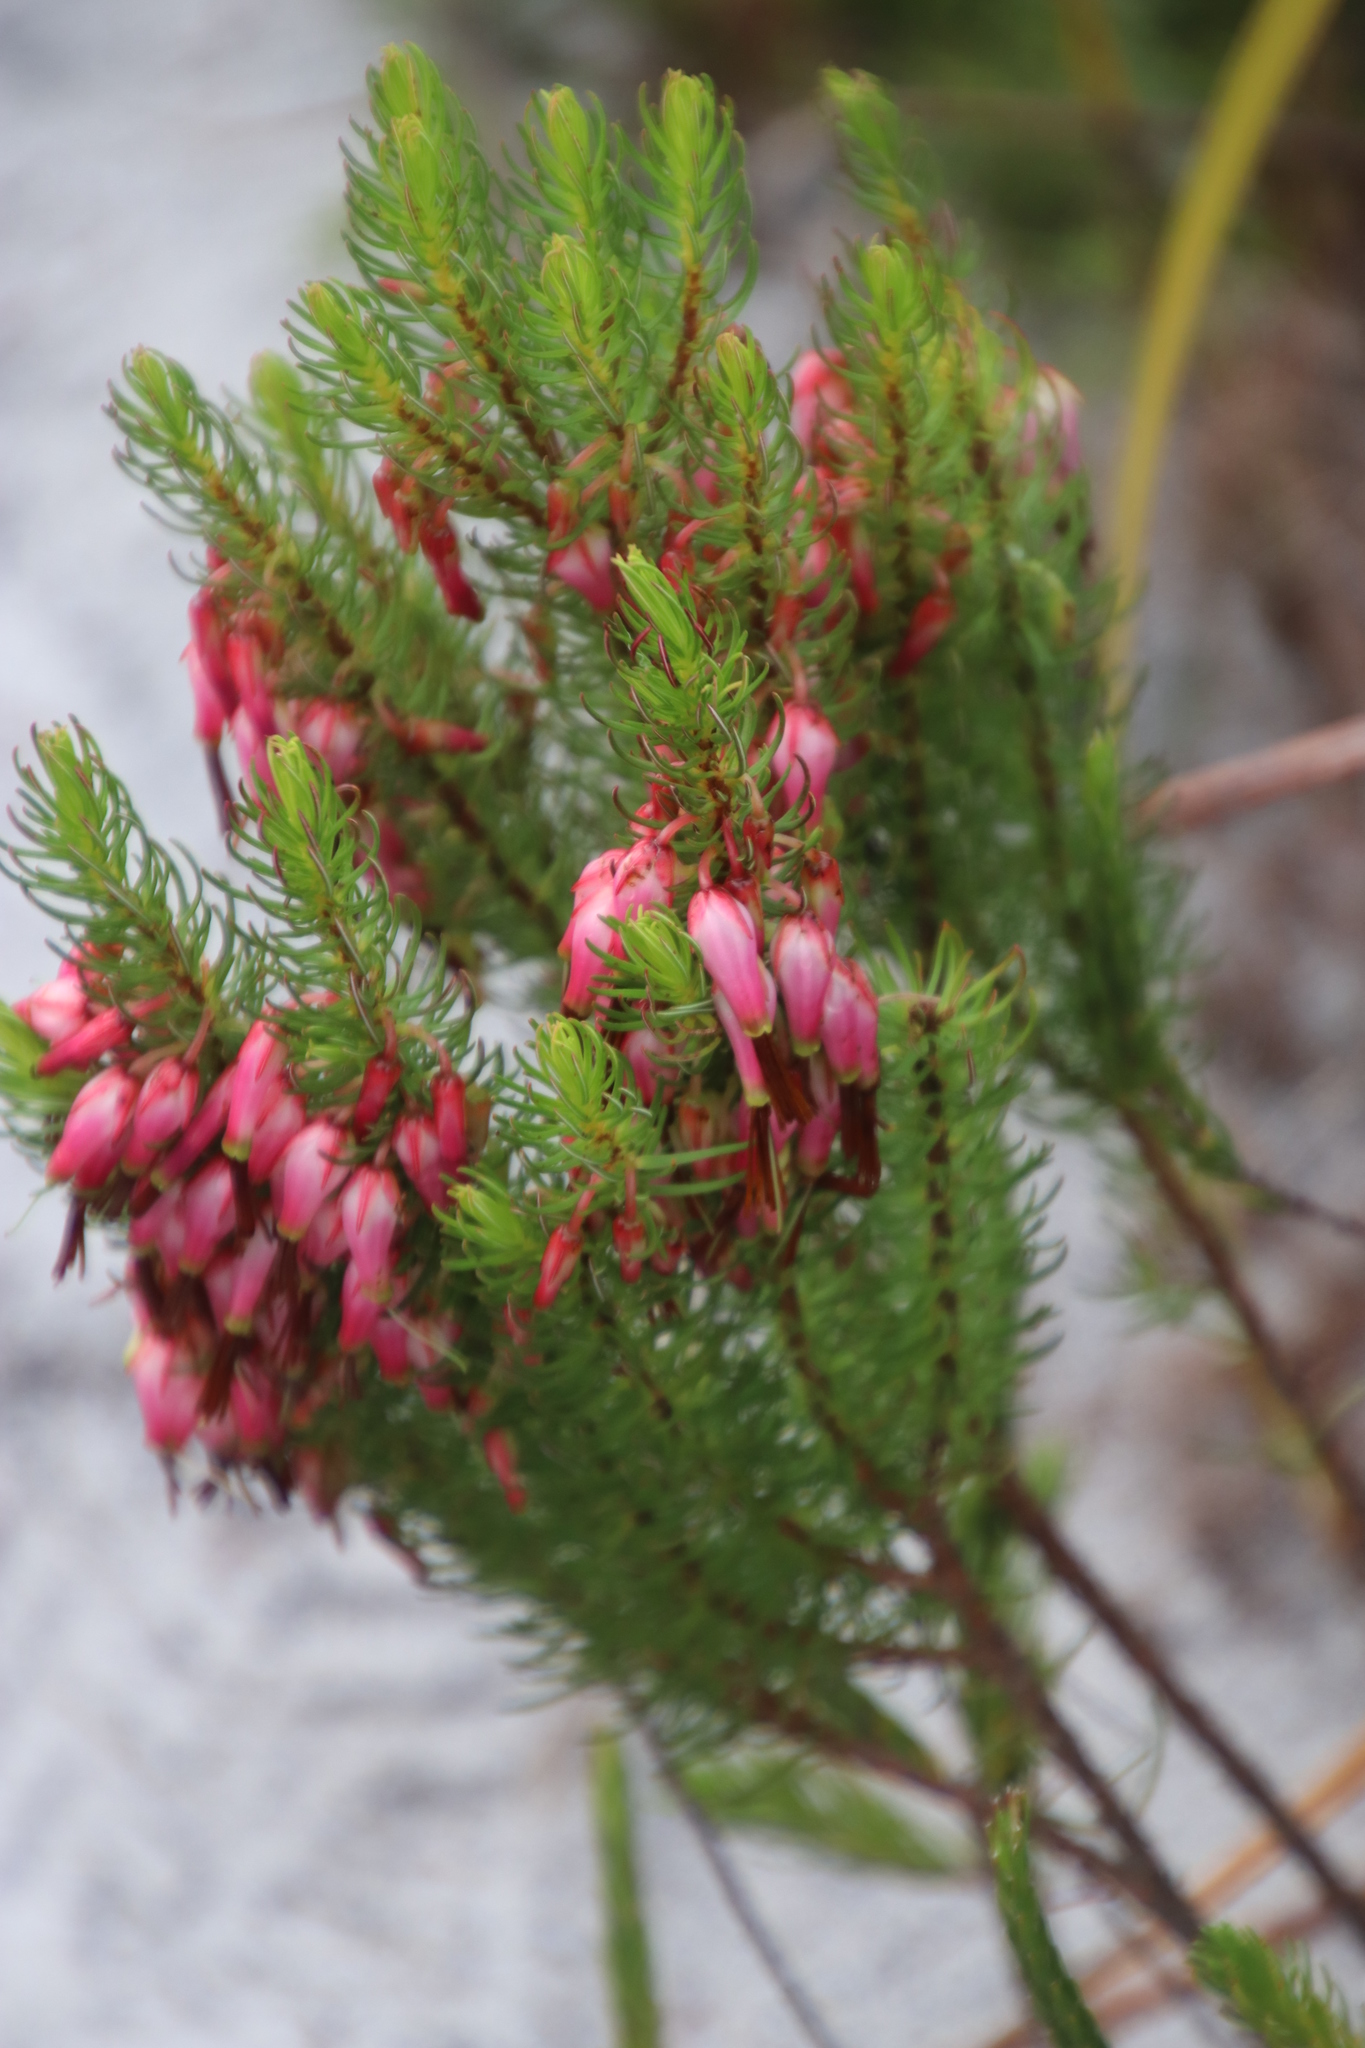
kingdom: Plantae
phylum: Tracheophyta
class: Magnoliopsida
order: Ericales
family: Ericaceae
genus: Erica
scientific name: Erica plukenetii
